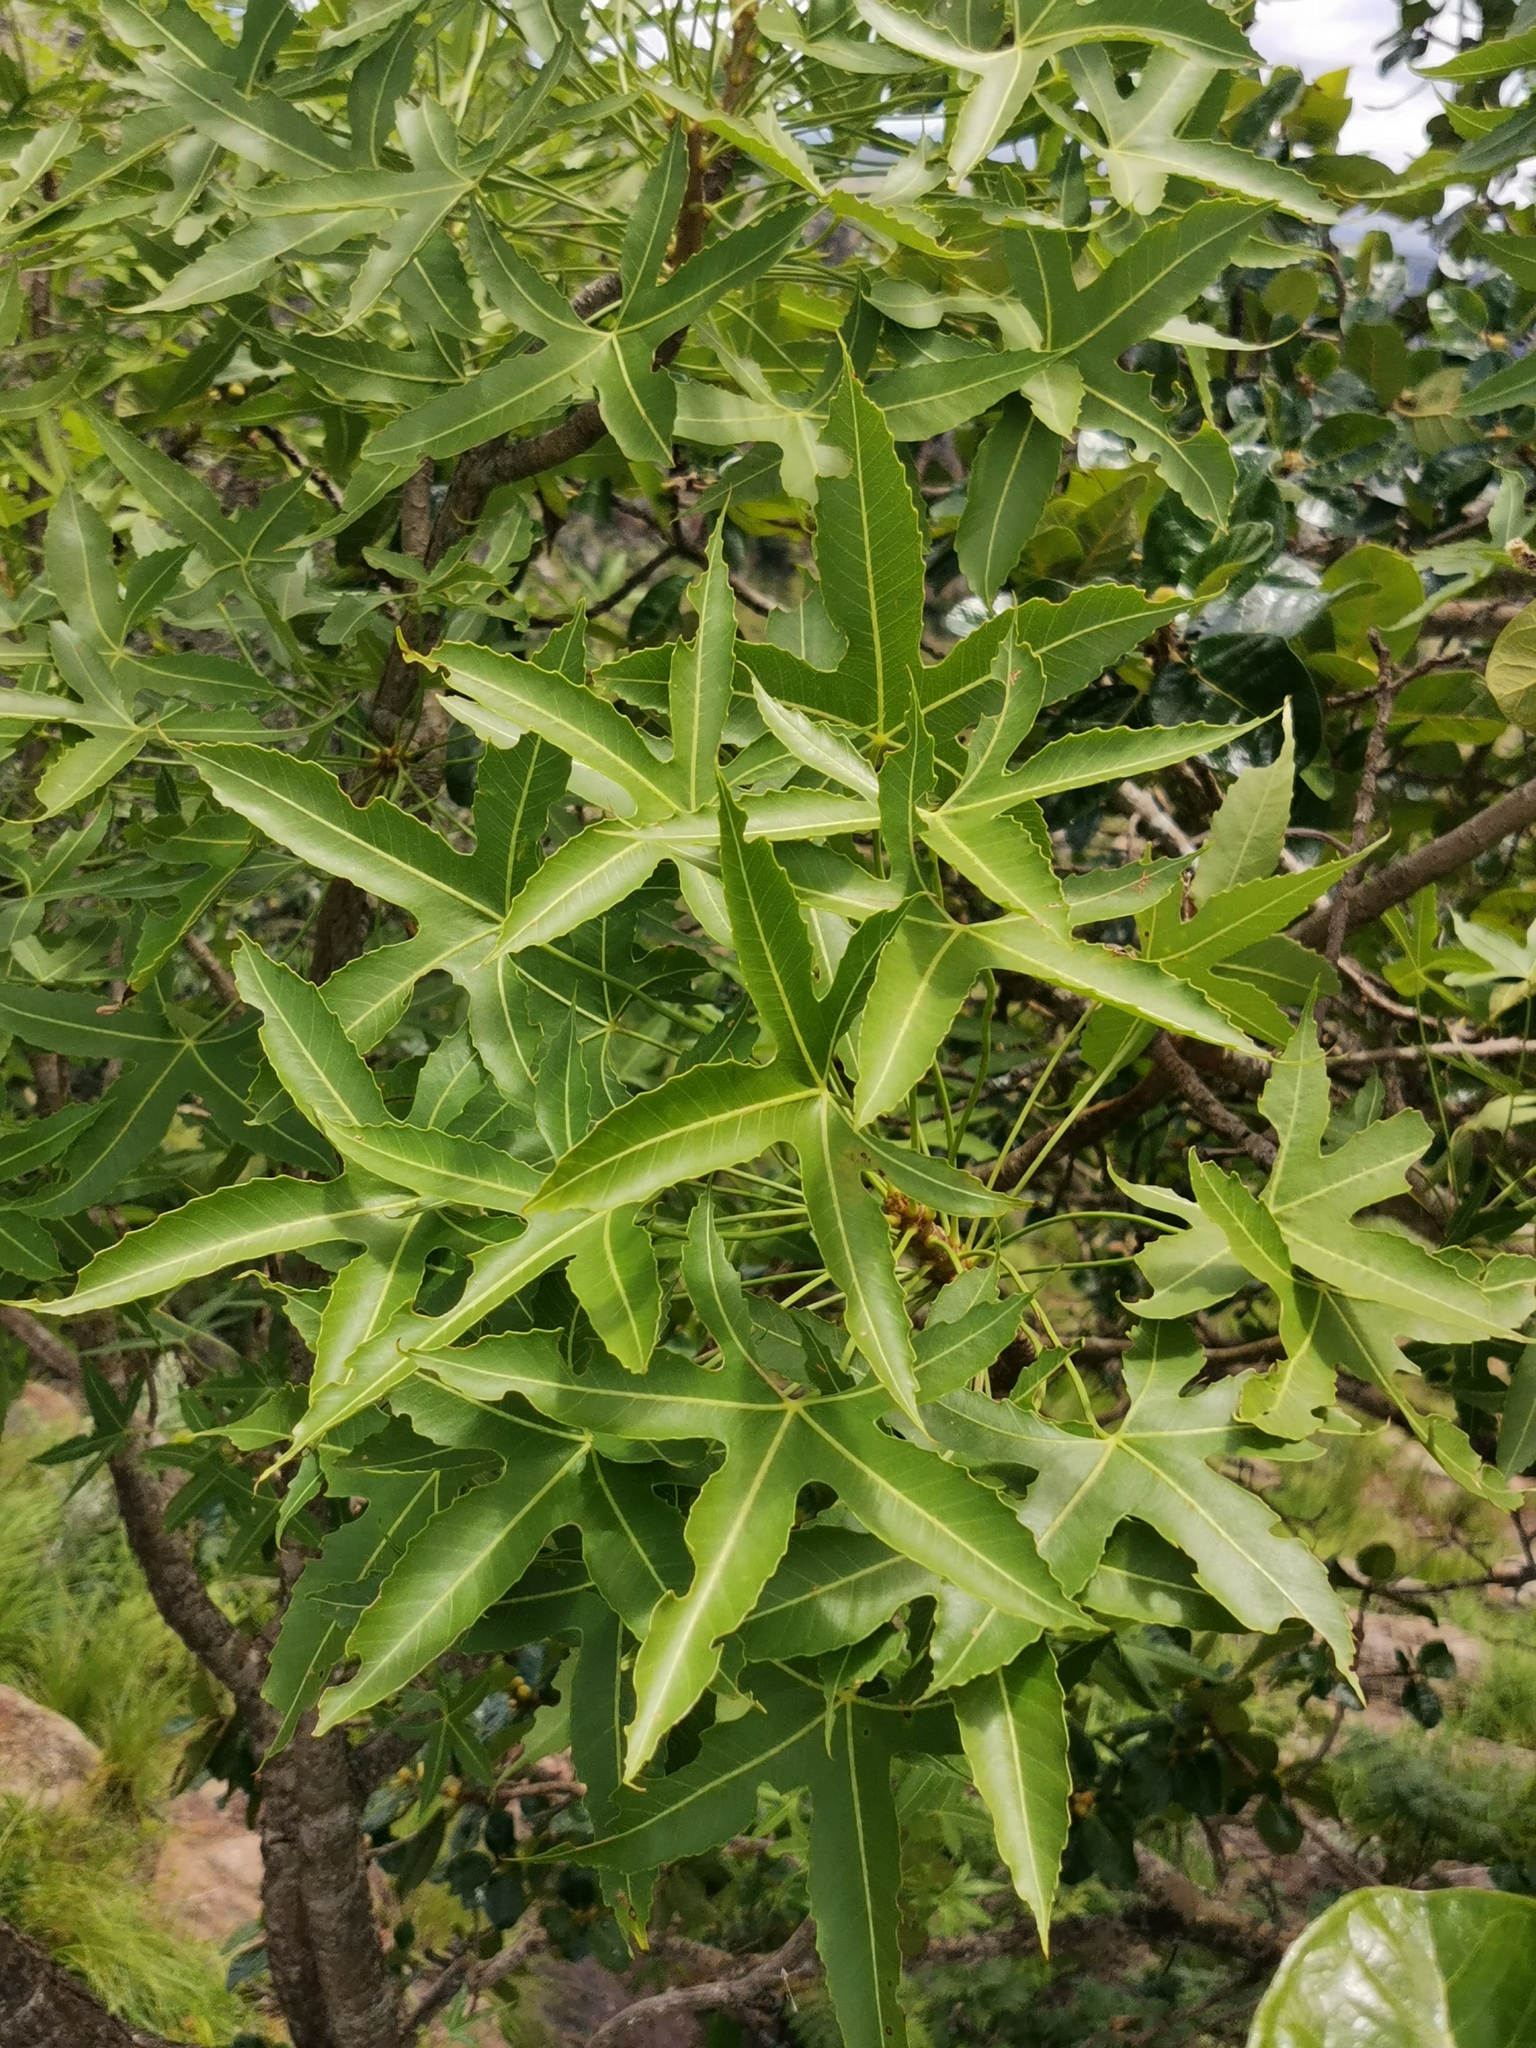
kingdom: Plantae
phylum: Tracheophyta
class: Magnoliopsida
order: Apiales
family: Araliaceae
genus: Cussonia
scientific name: Cussonia natalensis
